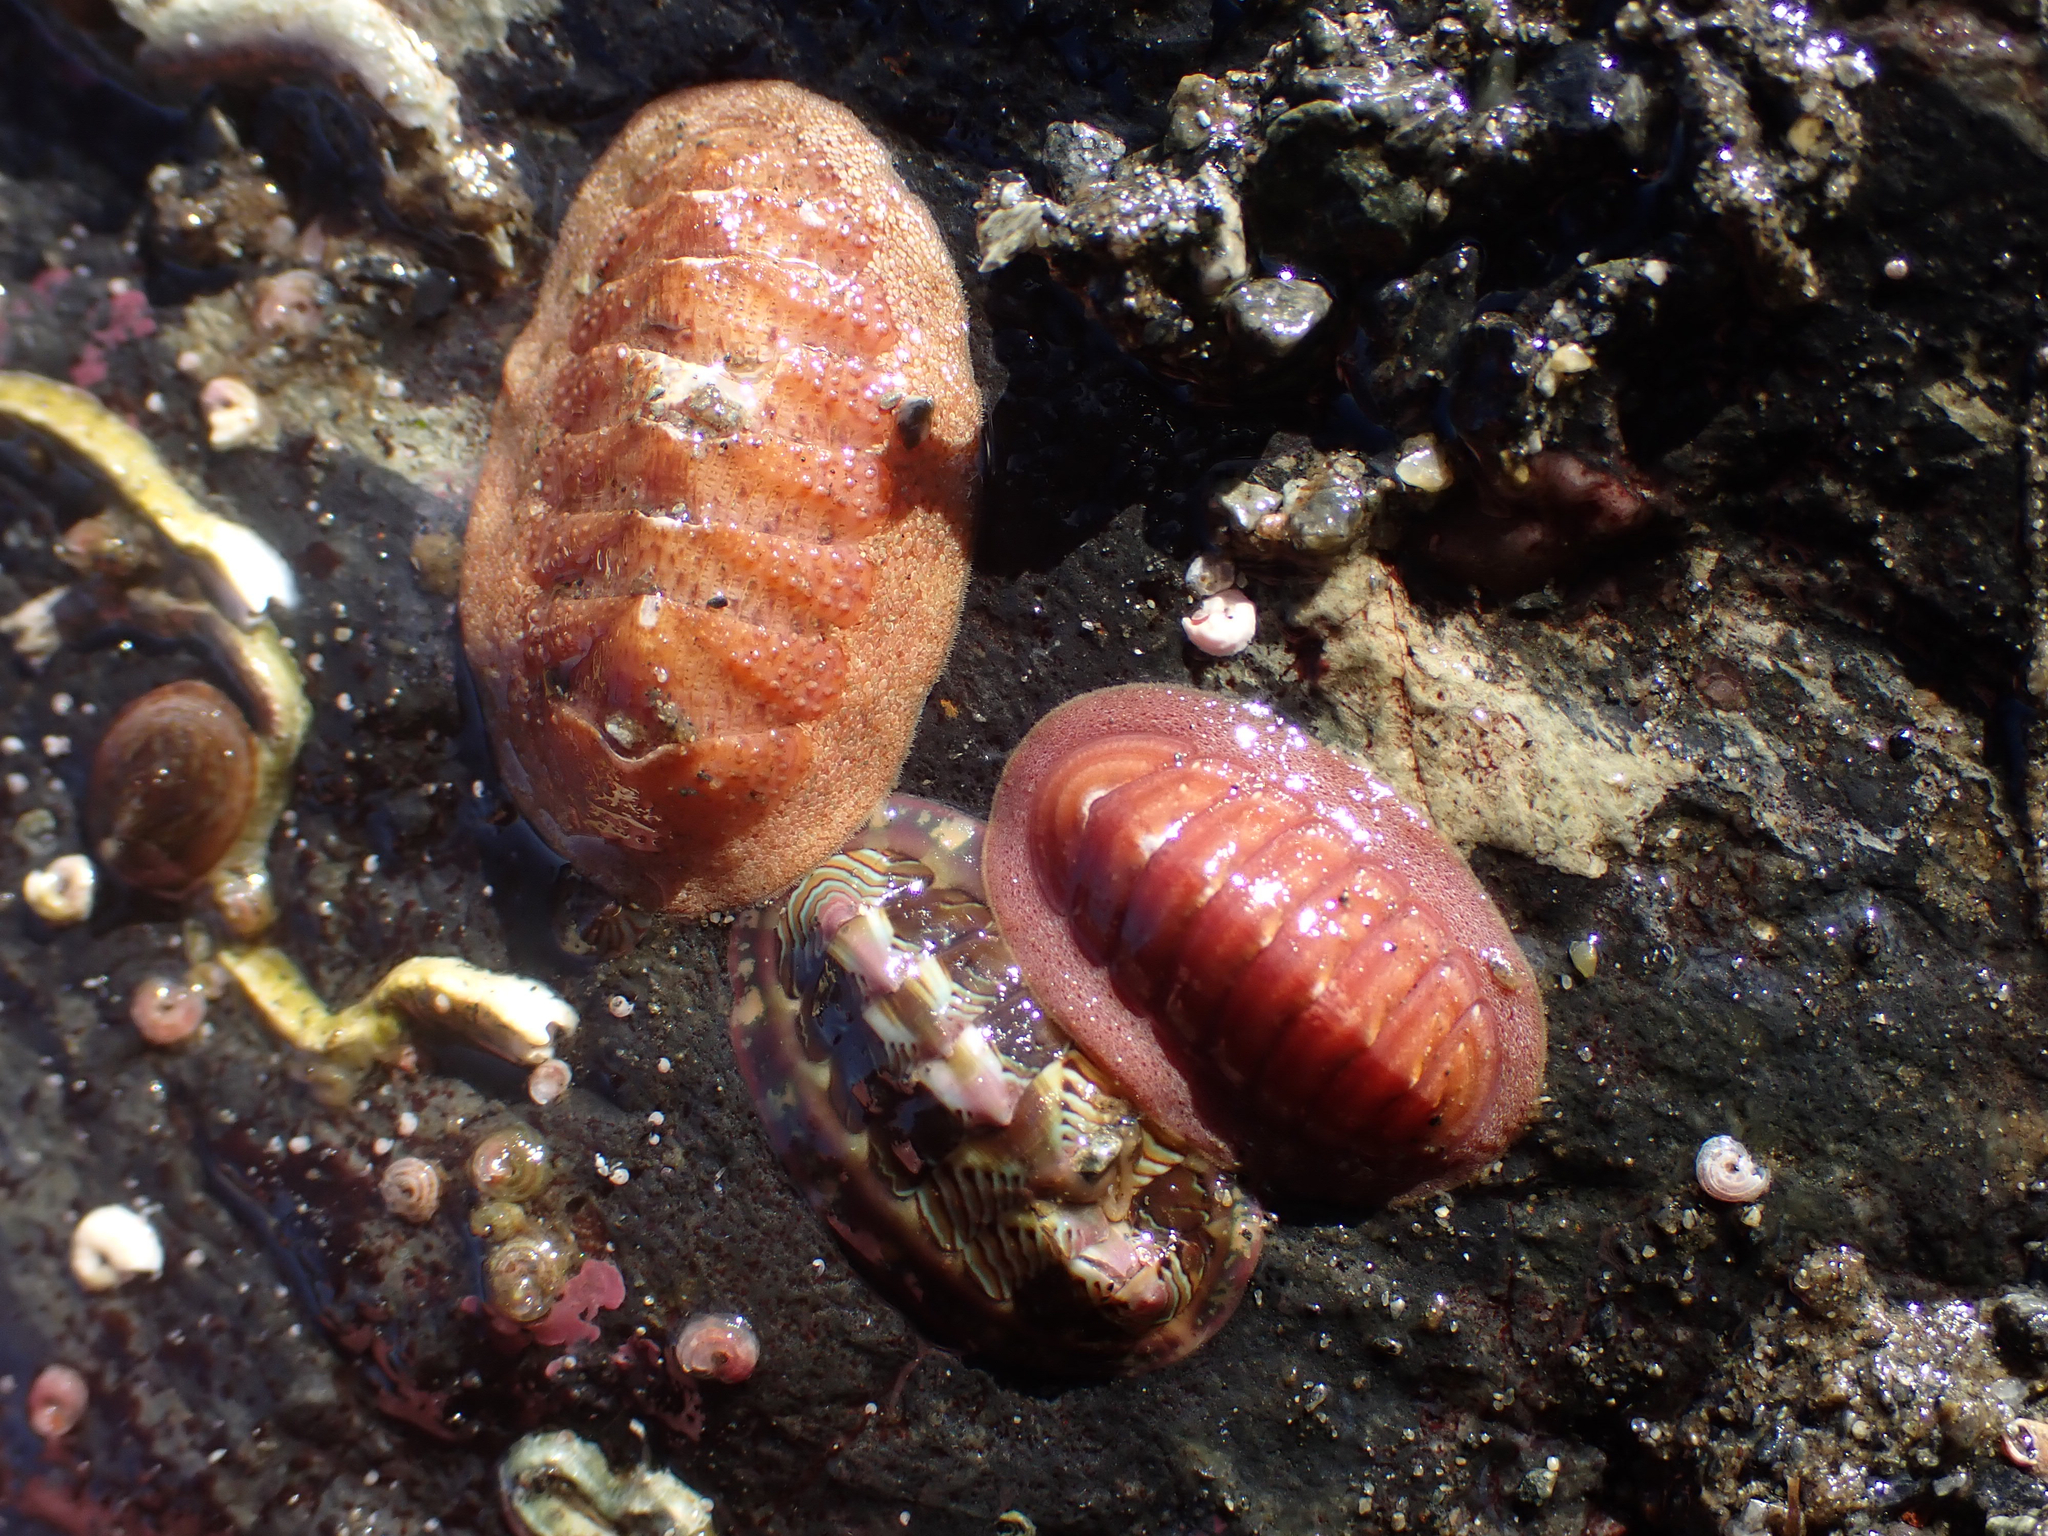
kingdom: Animalia
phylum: Mollusca
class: Polyplacophora
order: Chitonida
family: Ischnochitonidae
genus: Lepidozona
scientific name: Lepidozona mertensii
